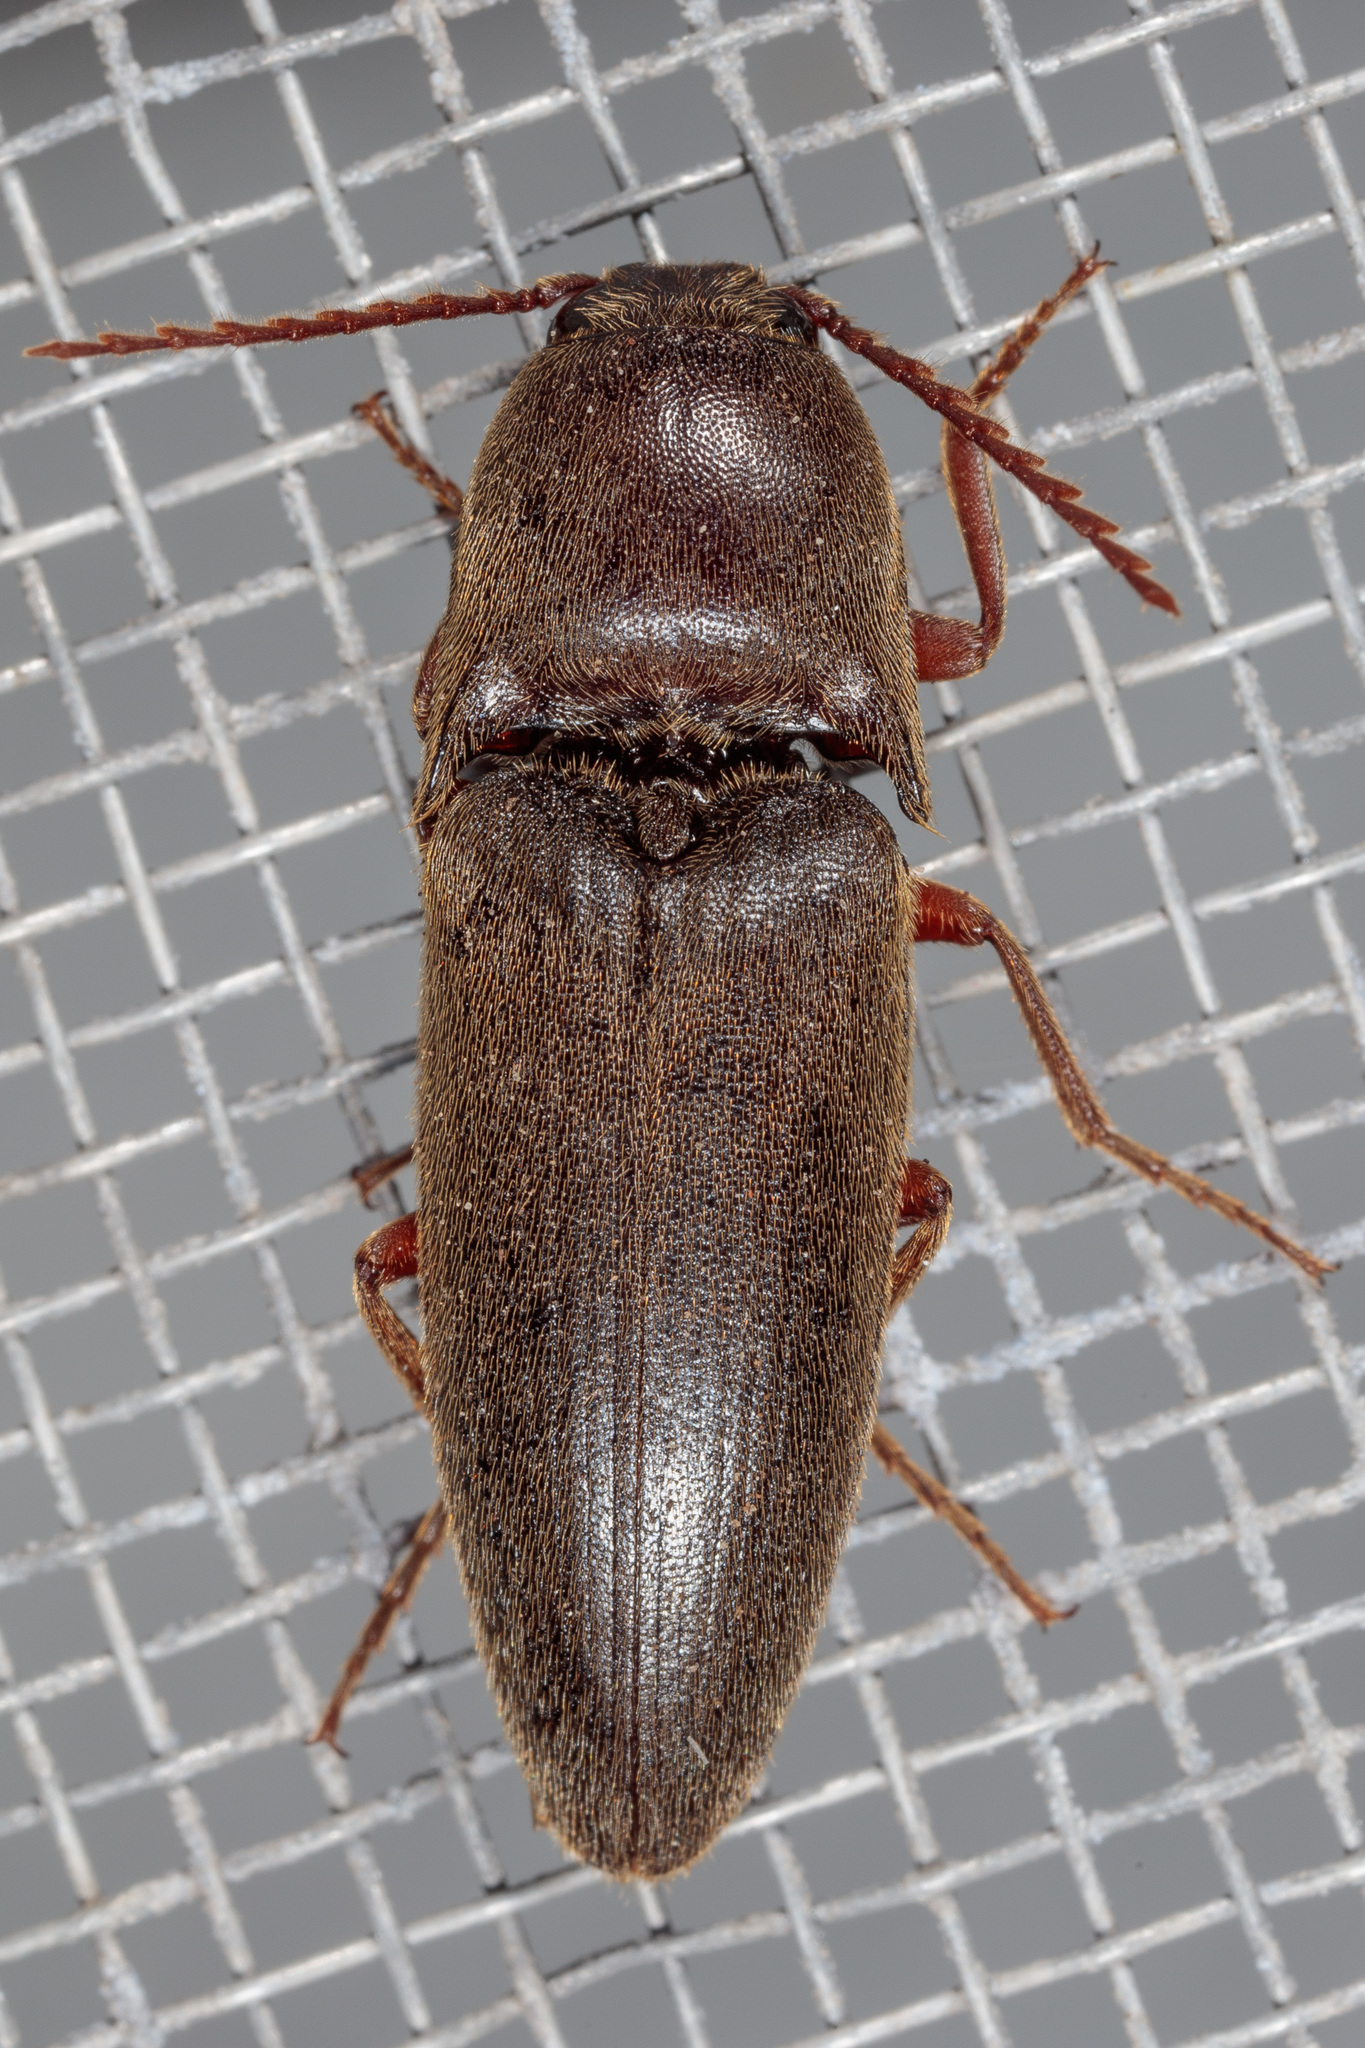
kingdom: Animalia
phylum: Arthropoda
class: Insecta
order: Coleoptera
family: Elateridae
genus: Diplostethus
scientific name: Diplostethus
